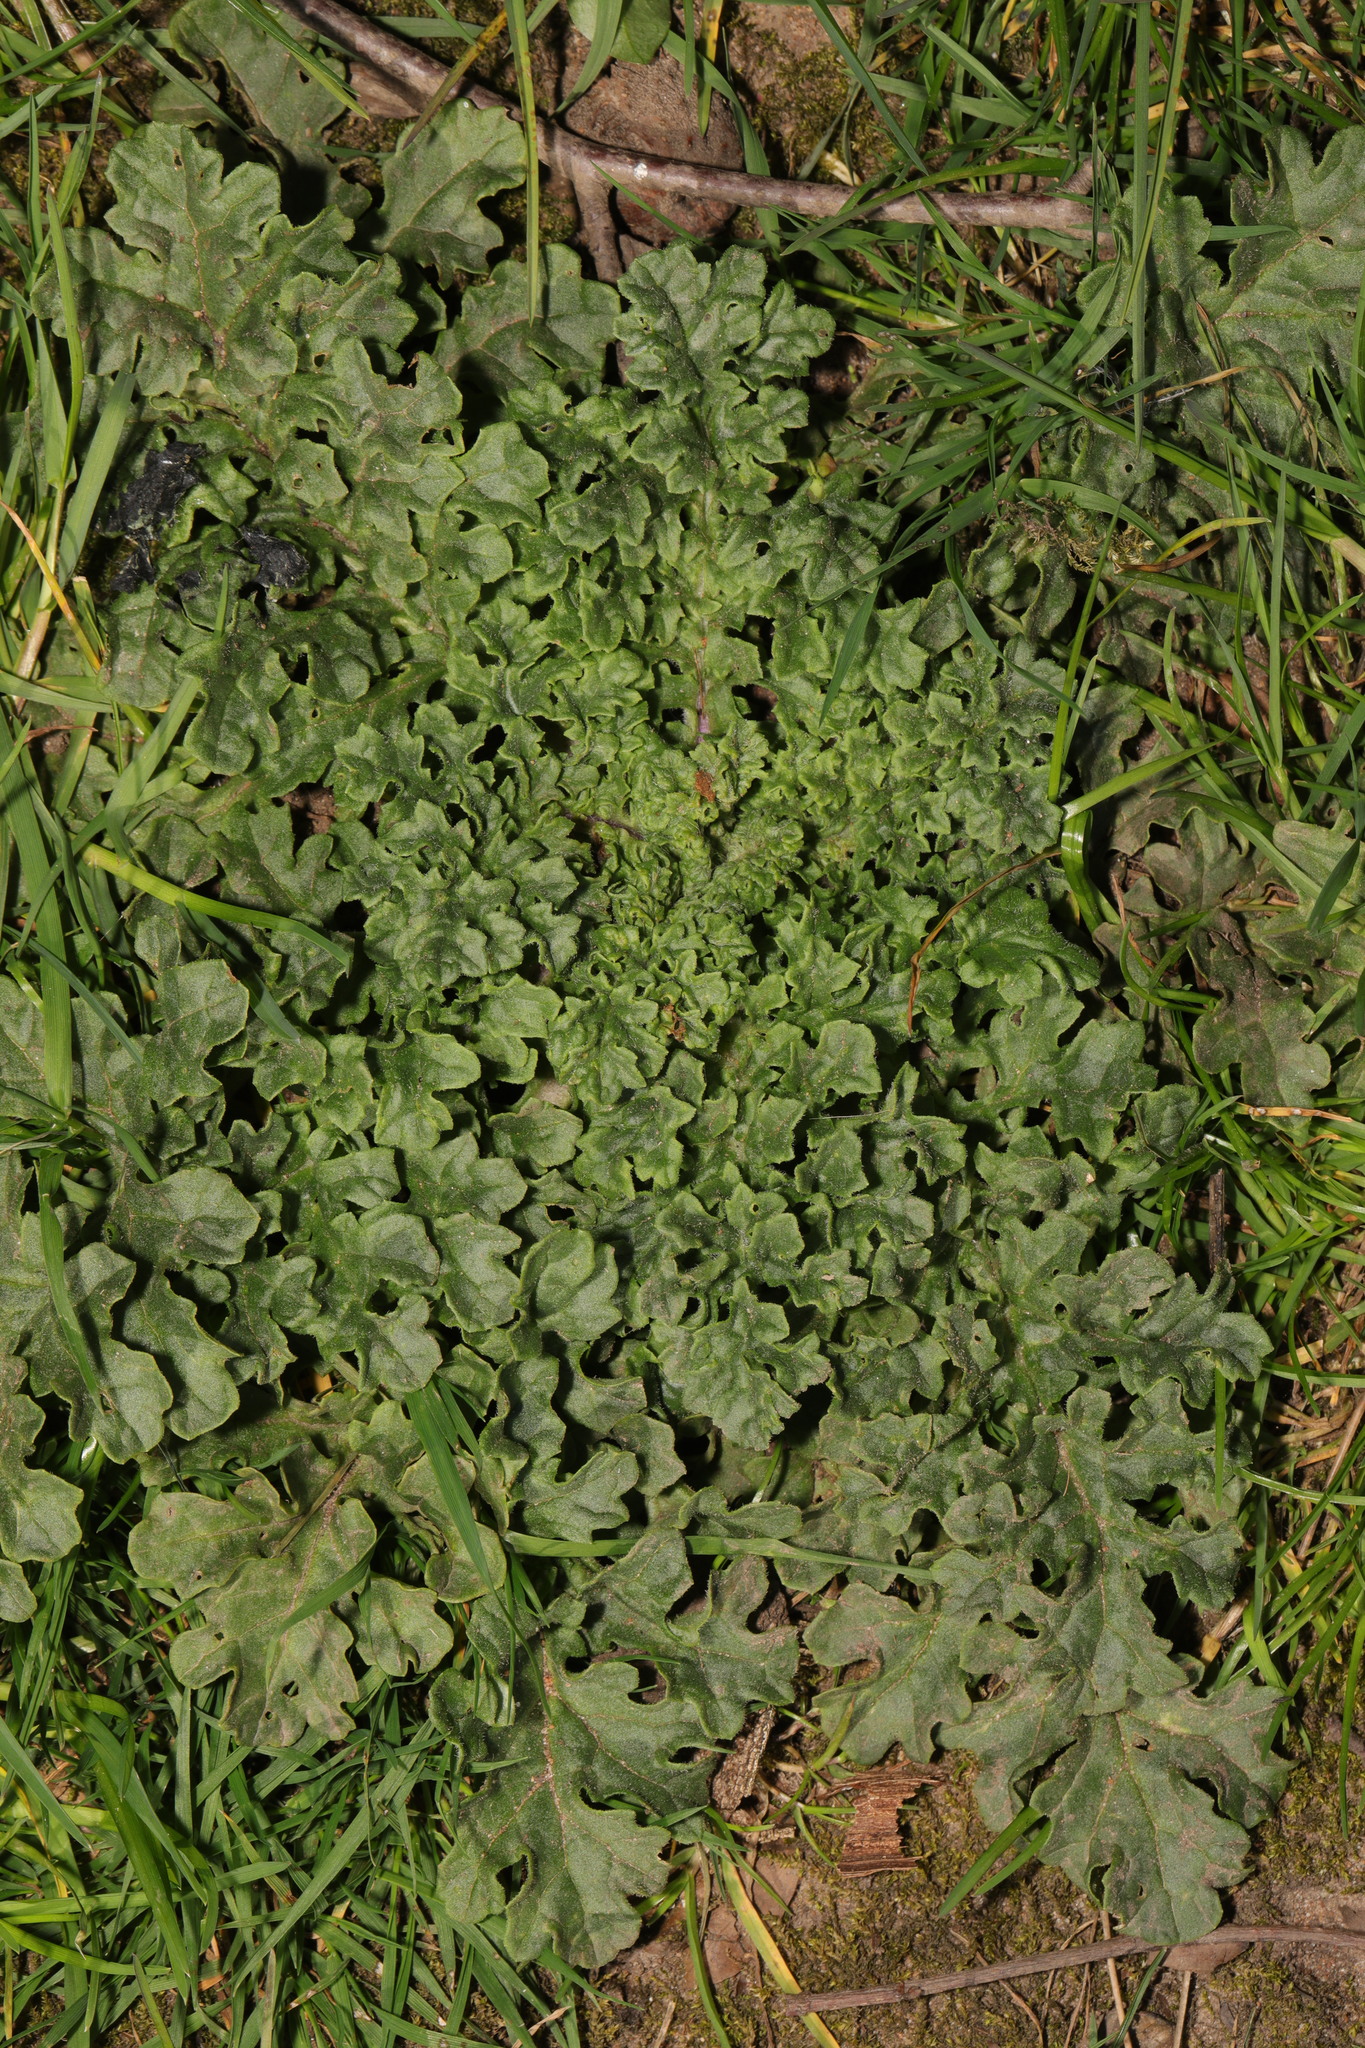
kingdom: Plantae
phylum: Tracheophyta
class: Magnoliopsida
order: Asterales
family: Asteraceae
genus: Jacobaea
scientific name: Jacobaea vulgaris
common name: Stinking willie
